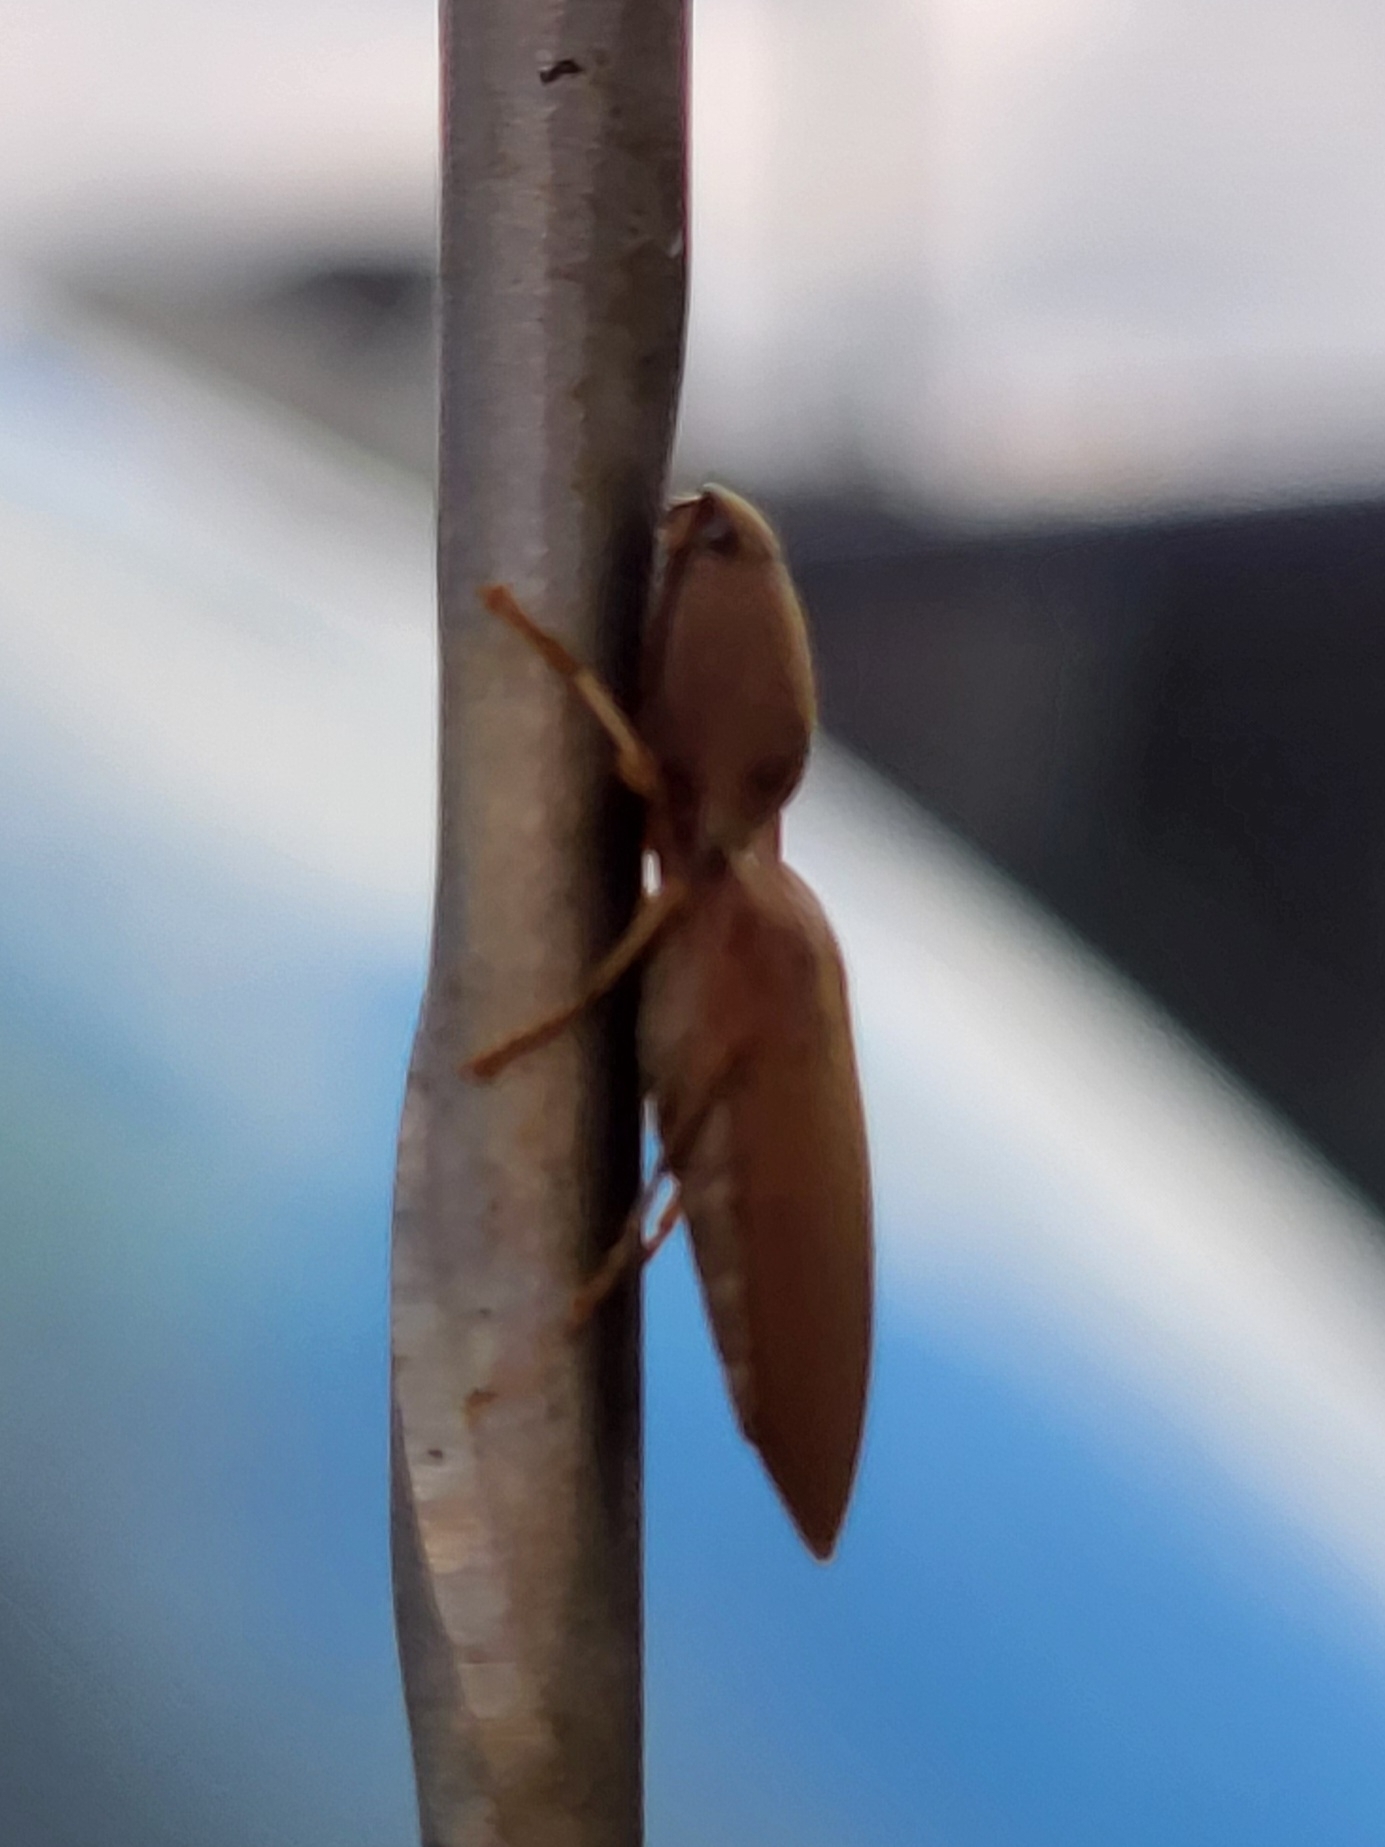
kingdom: Animalia
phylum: Arthropoda
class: Insecta
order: Coleoptera
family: Elateridae
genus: Monocrepidius
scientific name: Monocrepidius lividus
